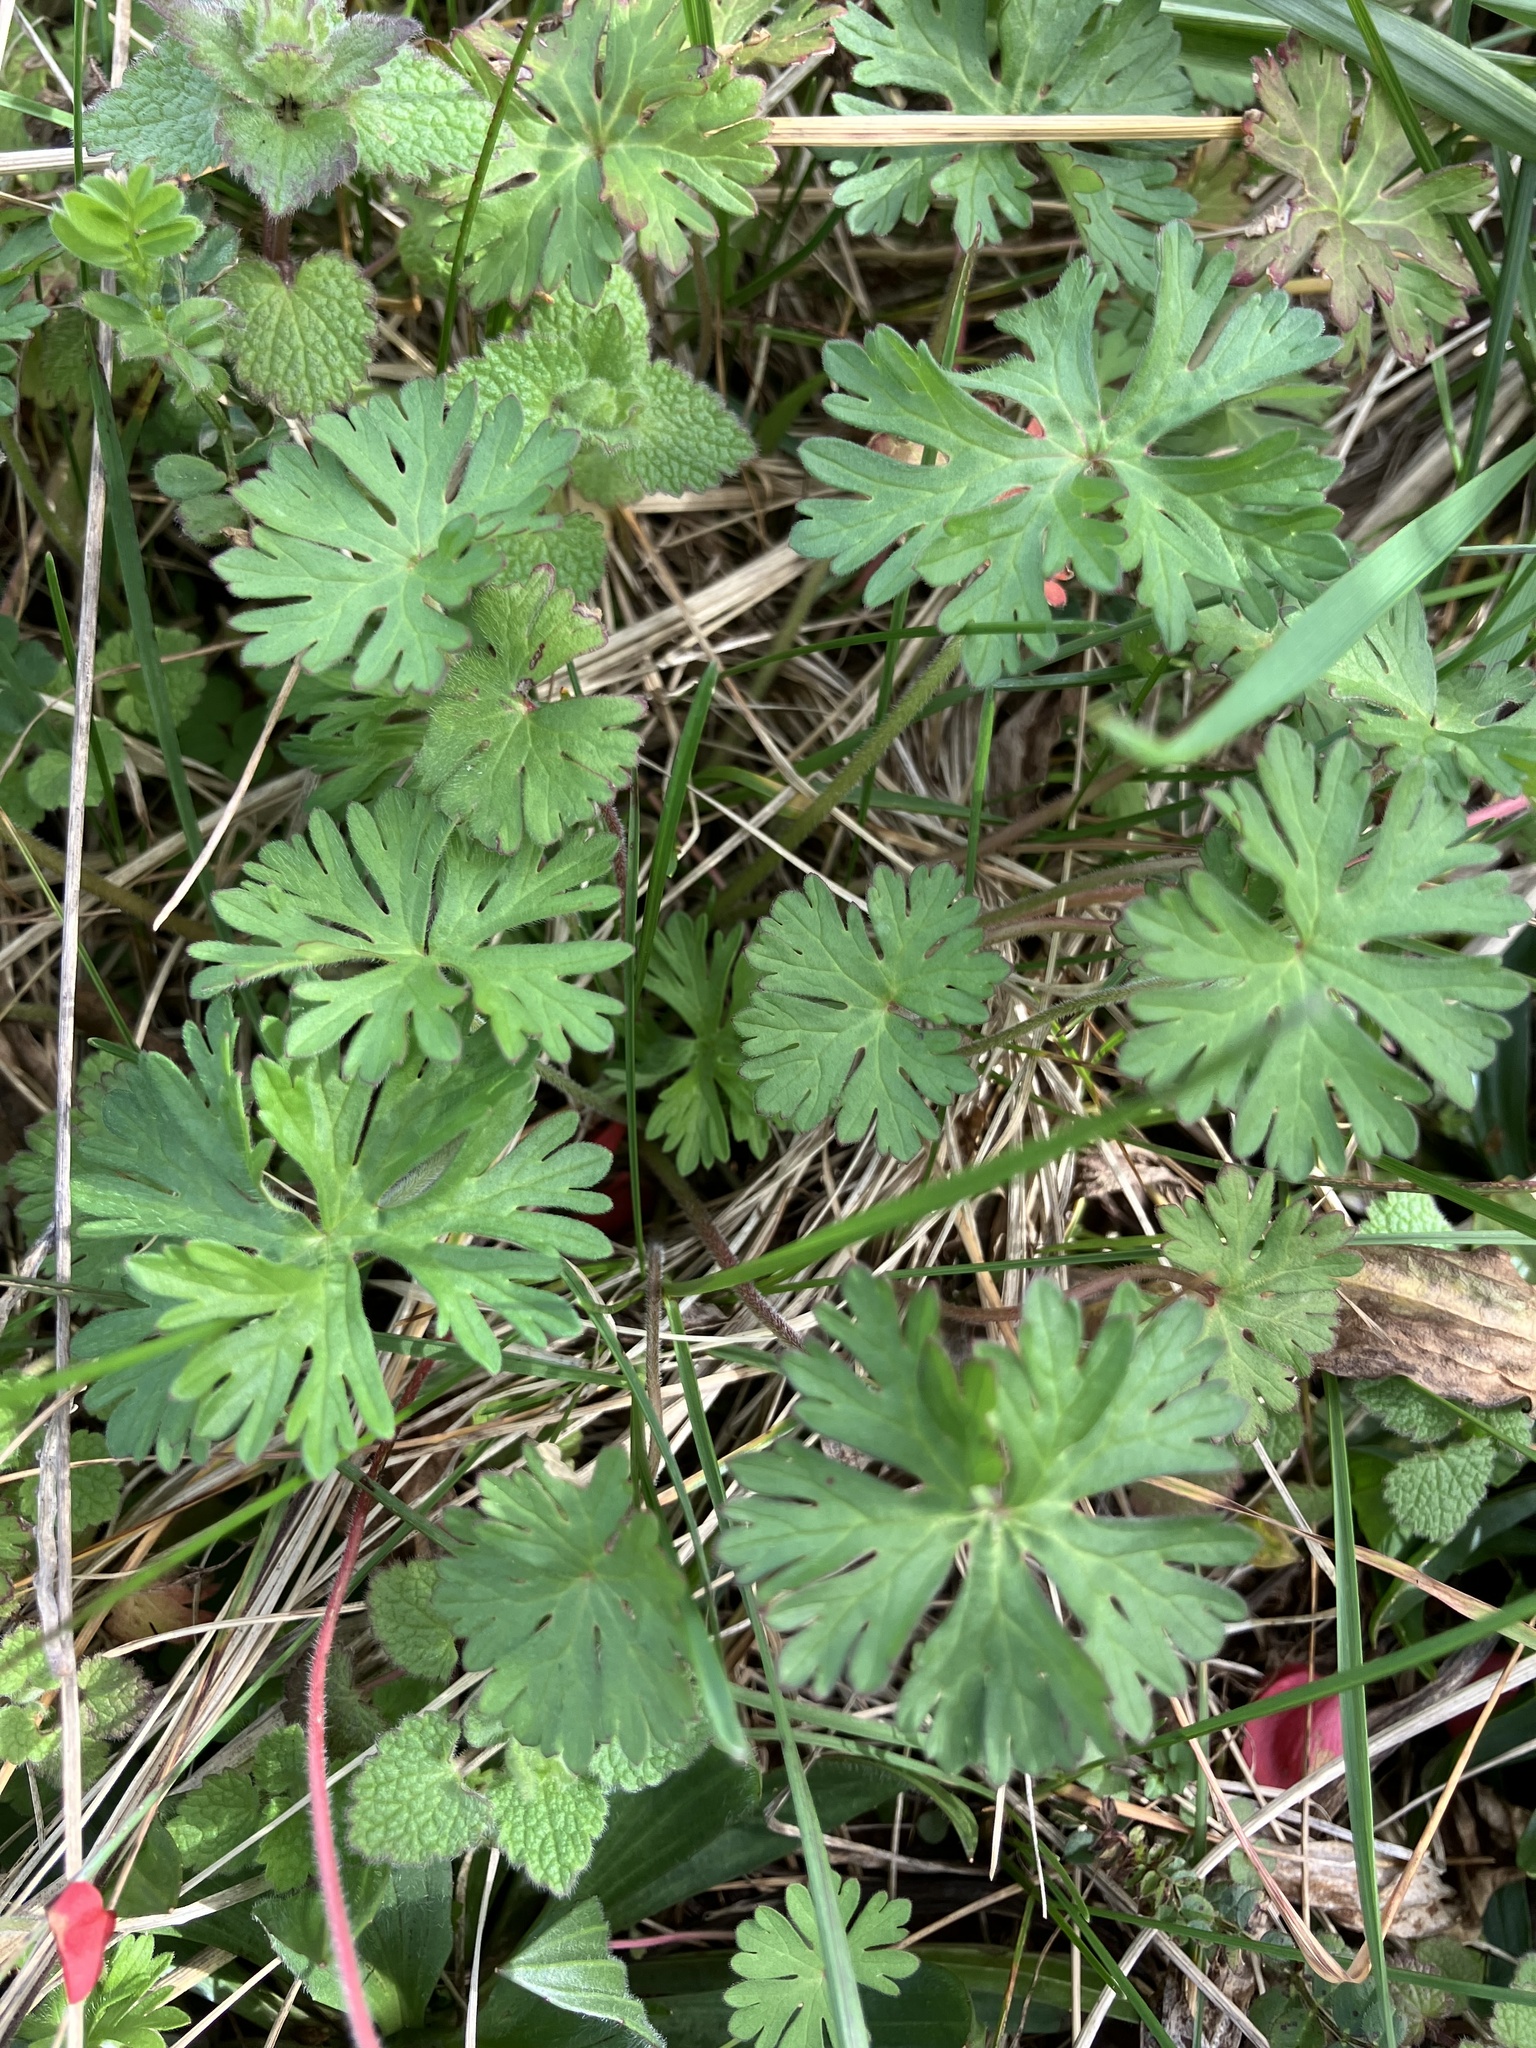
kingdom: Plantae
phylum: Tracheophyta
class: Magnoliopsida
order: Geraniales
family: Geraniaceae
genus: Geranium
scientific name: Geranium carolinianum
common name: Carolina crane's-bill
